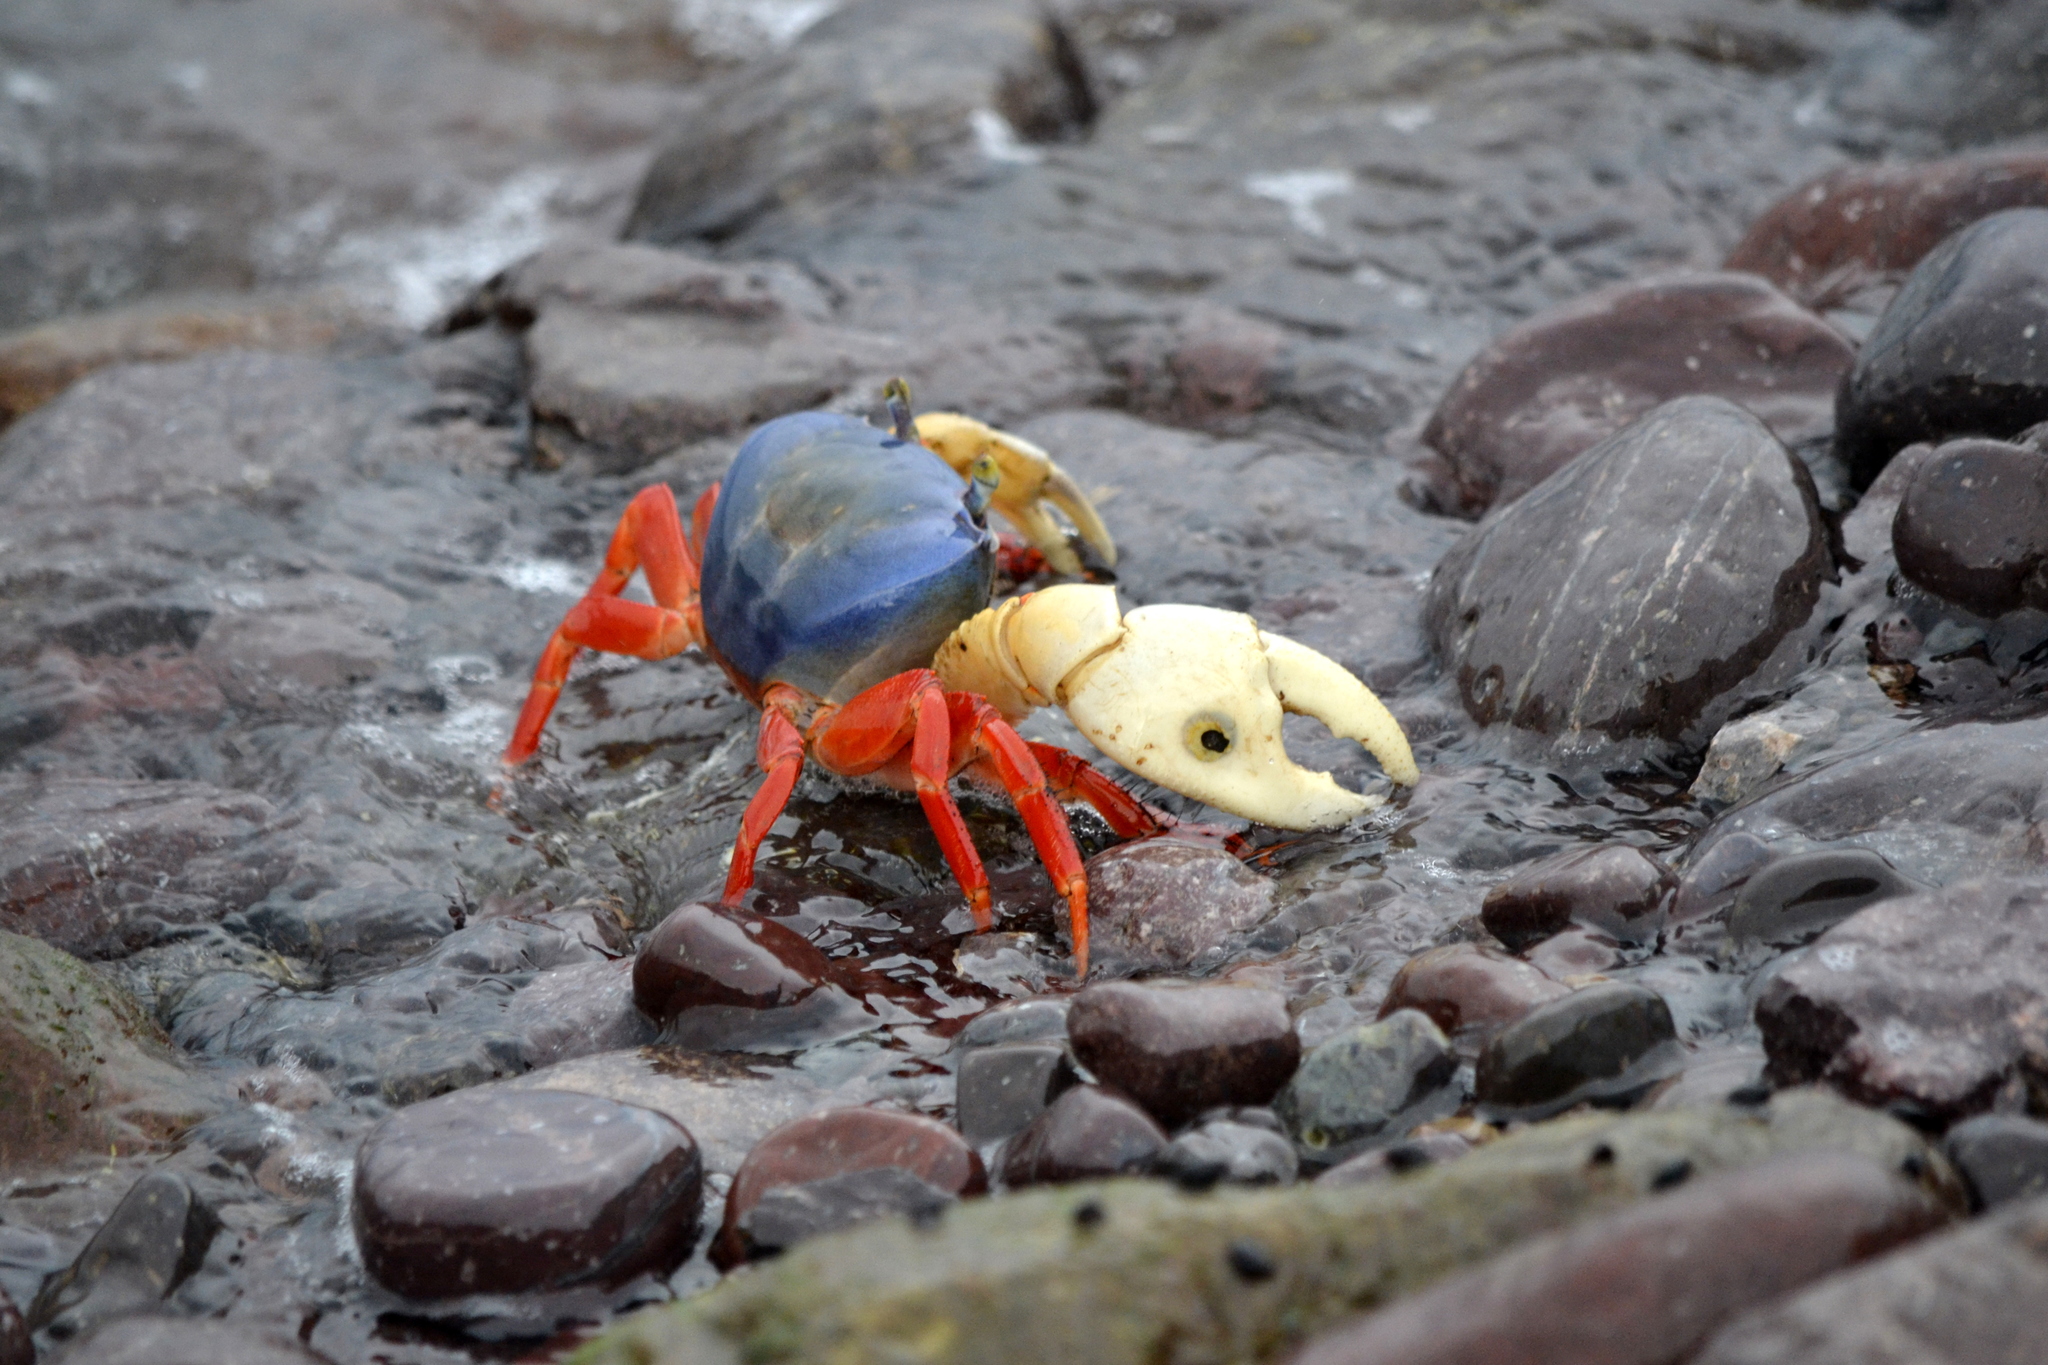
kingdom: Animalia
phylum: Arthropoda
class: Malacostraca
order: Decapoda
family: Gecarcinidae
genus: Gecarcinus
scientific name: Gecarcinus quadratus
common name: Halloween crab
